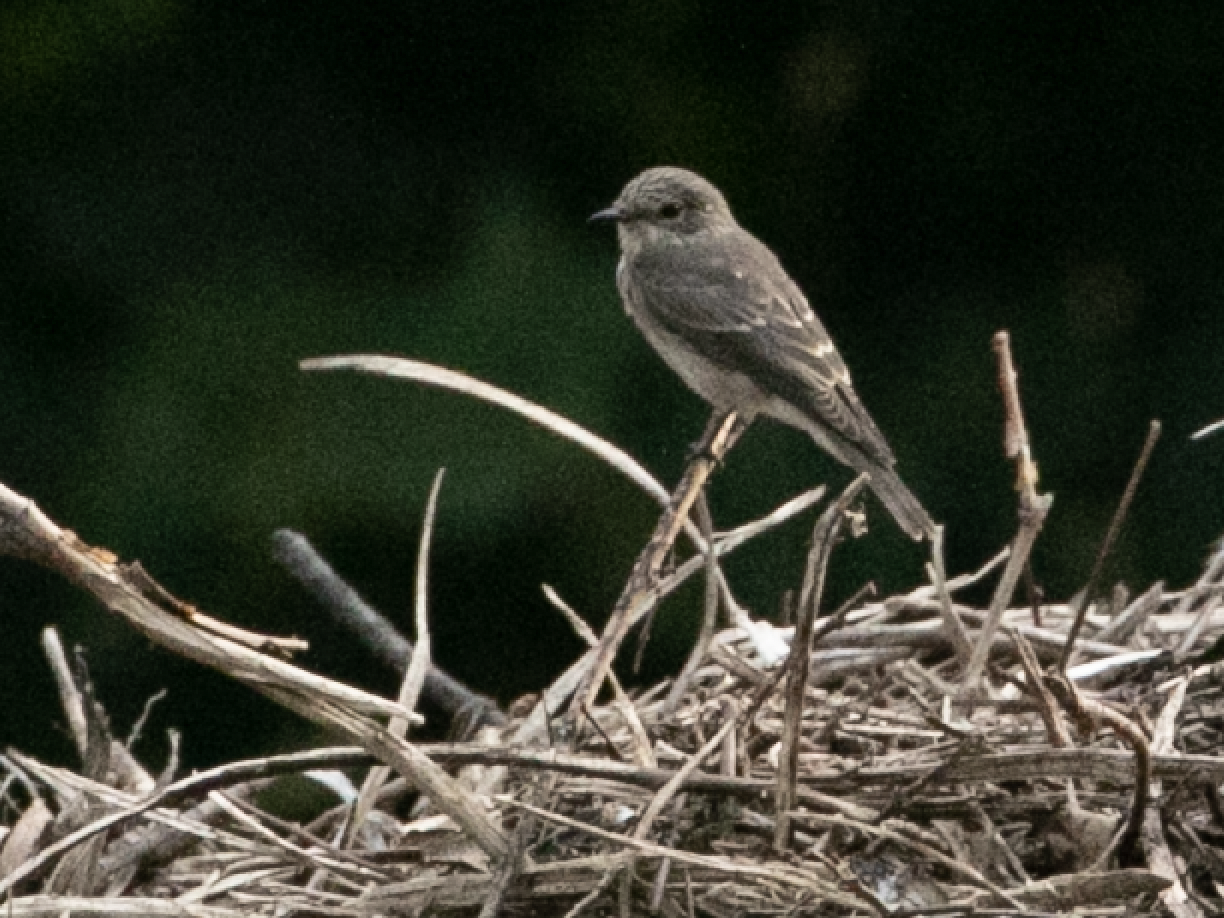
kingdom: Animalia
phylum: Chordata
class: Aves
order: Passeriformes
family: Muscicapidae
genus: Muscicapa
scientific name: Muscicapa striata
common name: Spotted flycatcher
